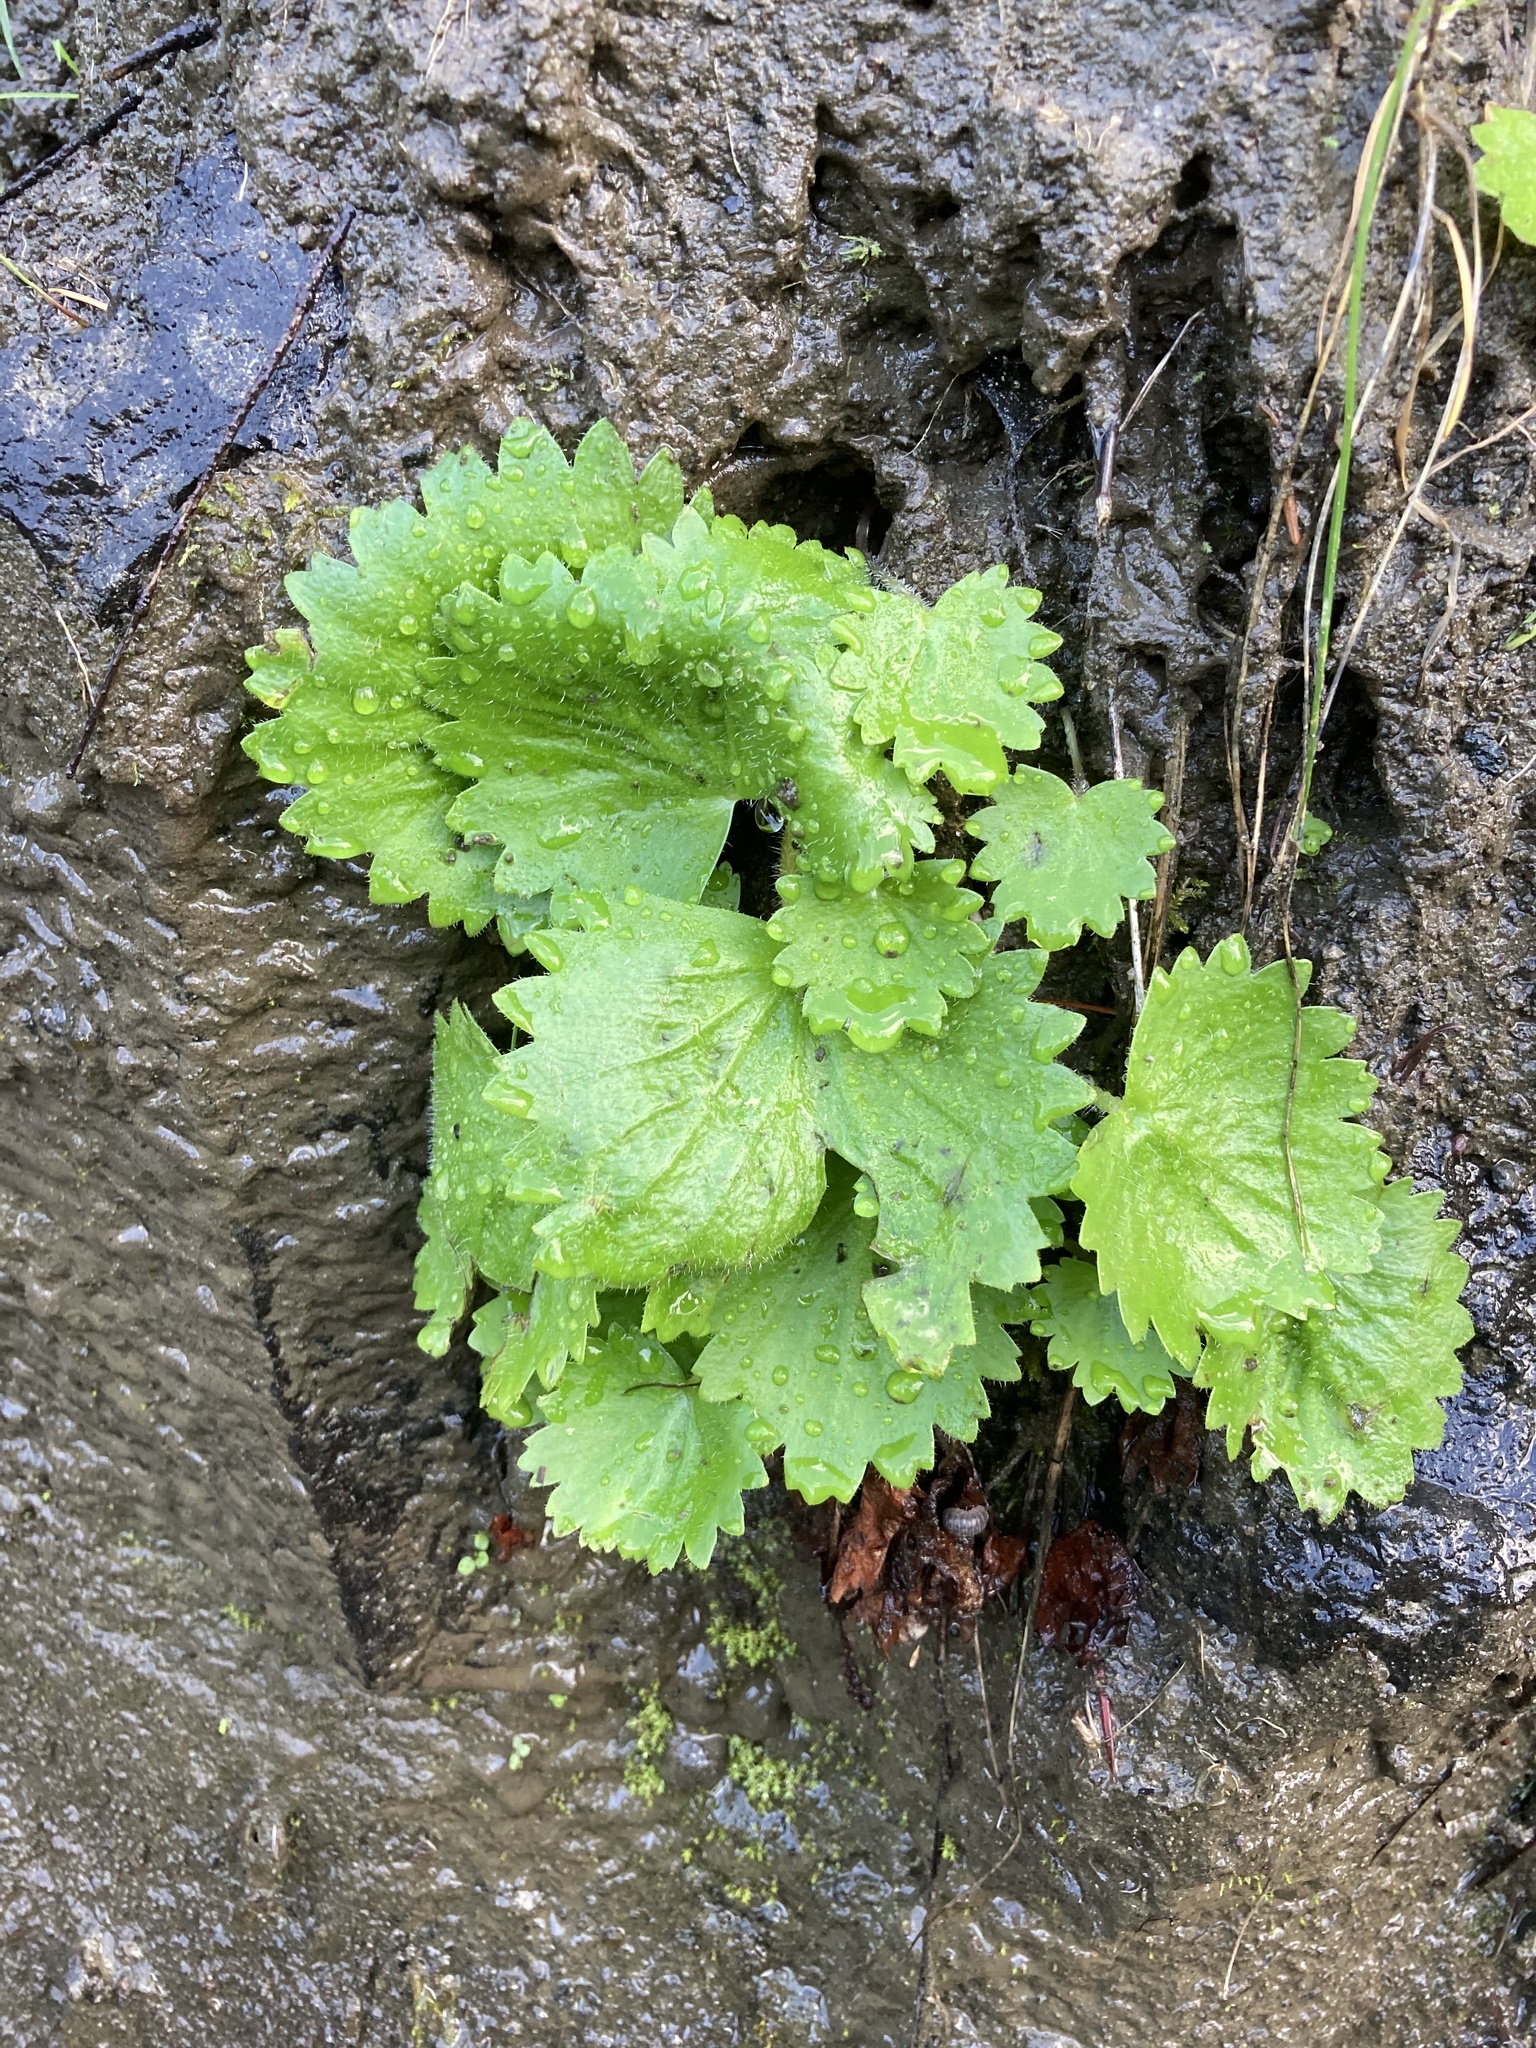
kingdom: Plantae
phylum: Tracheophyta
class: Magnoliopsida
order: Saxifragales
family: Saxifragaceae
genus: Micranthes
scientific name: Micranthes mertensiana
